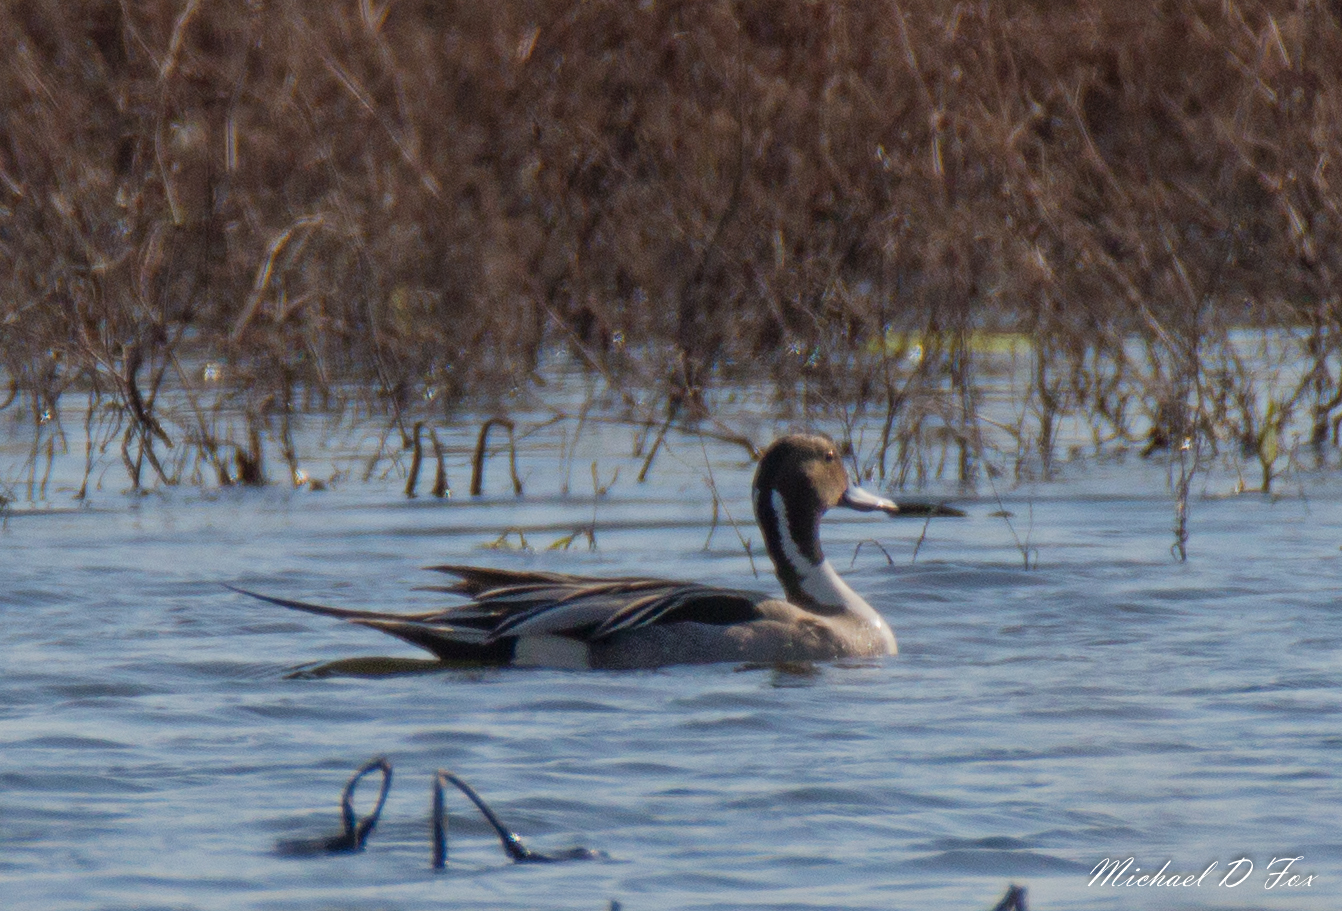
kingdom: Animalia
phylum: Chordata
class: Aves
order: Anseriformes
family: Anatidae
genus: Anas
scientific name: Anas acuta
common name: Northern pintail
